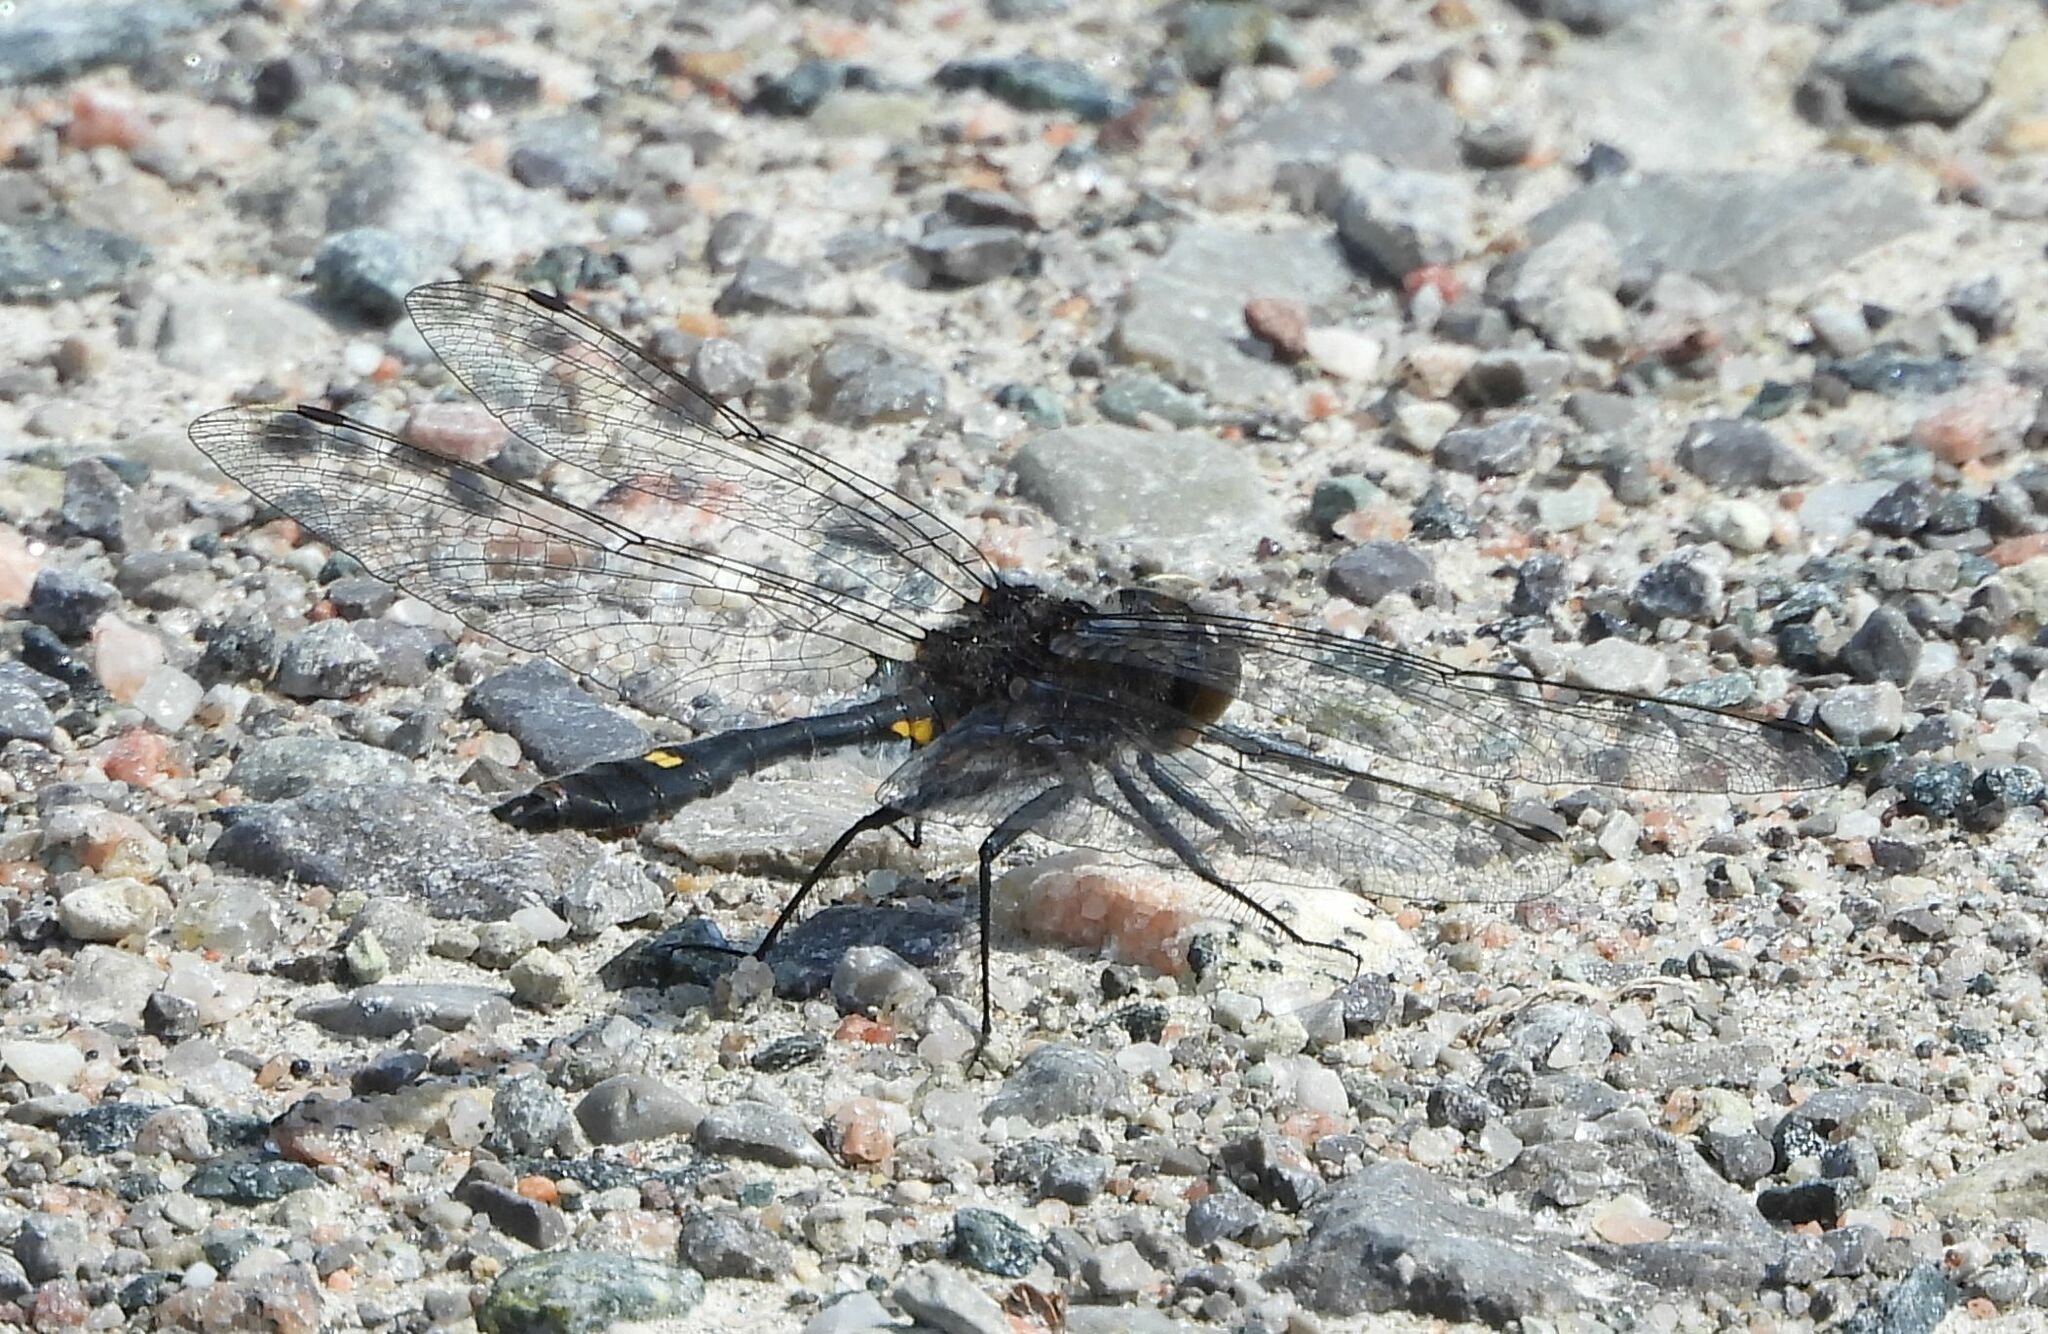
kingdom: Animalia
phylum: Arthropoda
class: Insecta
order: Odonata
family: Libellulidae
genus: Leucorrhinia
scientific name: Leucorrhinia intacta
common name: Dot-tailed whiteface
